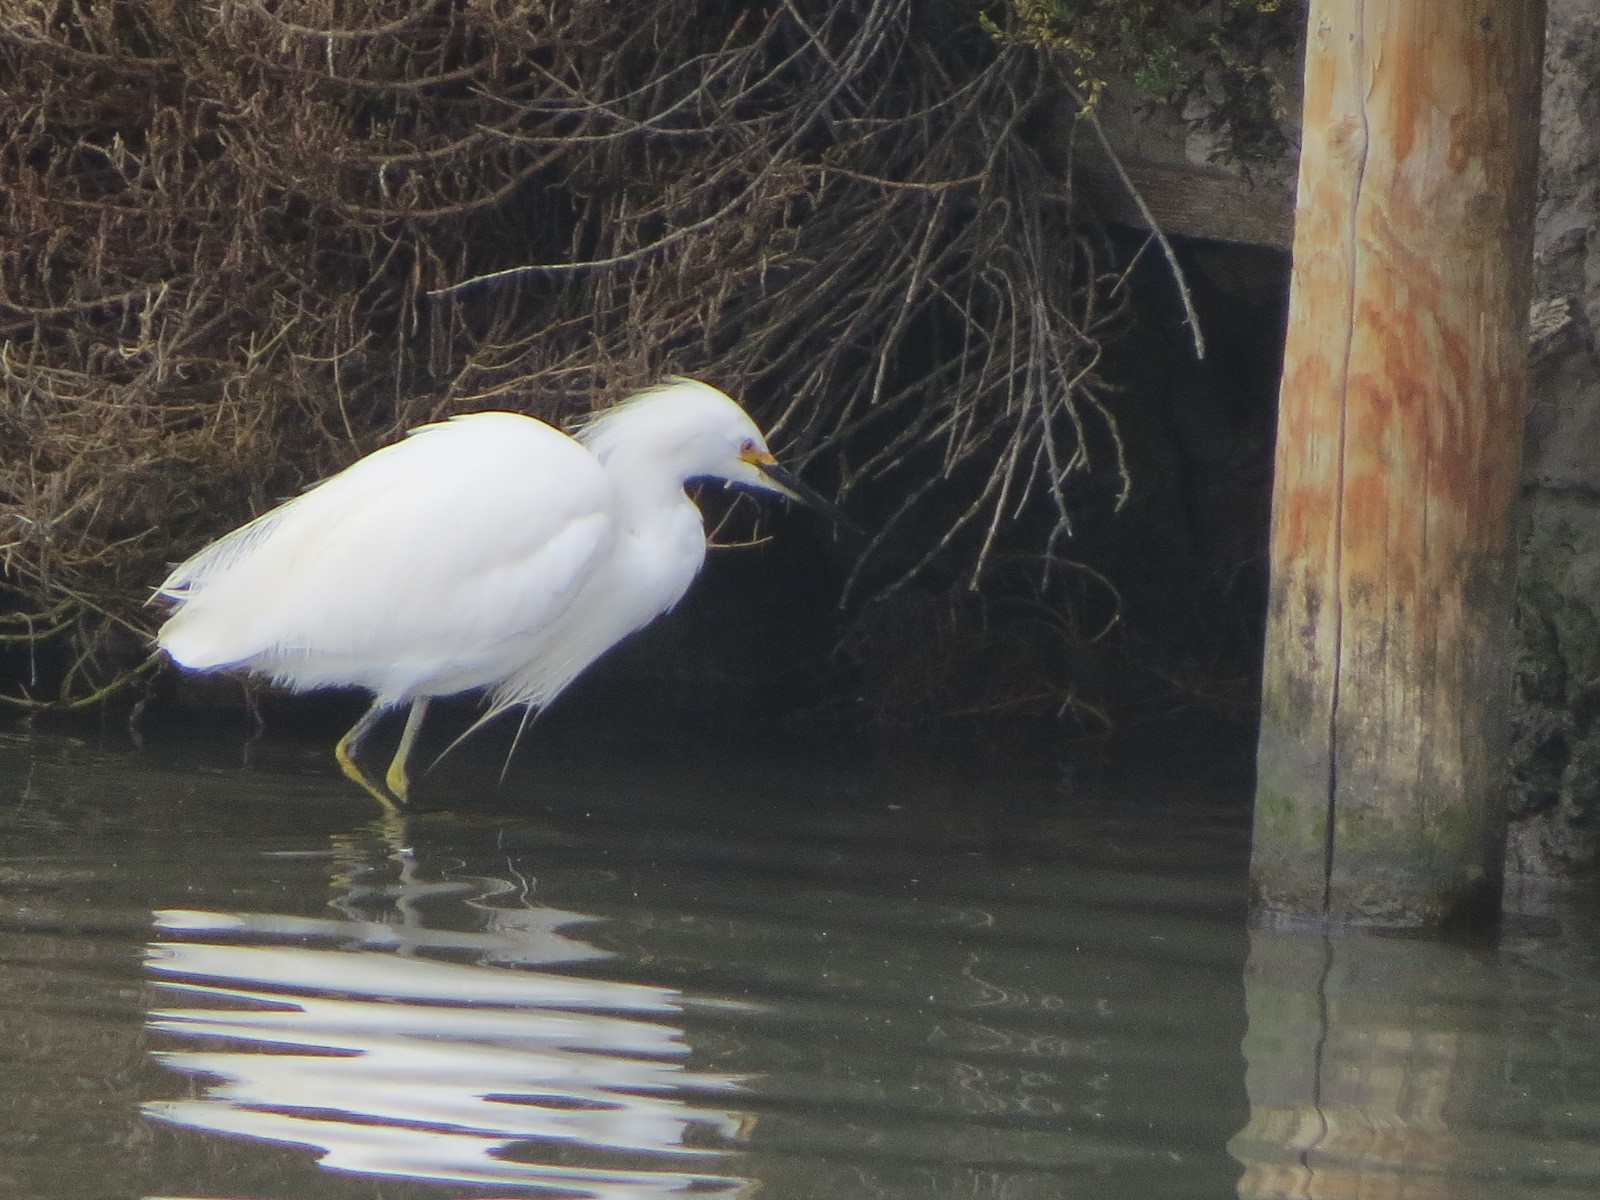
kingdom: Animalia
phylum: Chordata
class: Aves
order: Pelecaniformes
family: Ardeidae
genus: Egretta
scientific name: Egretta thula
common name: Snowy egret
